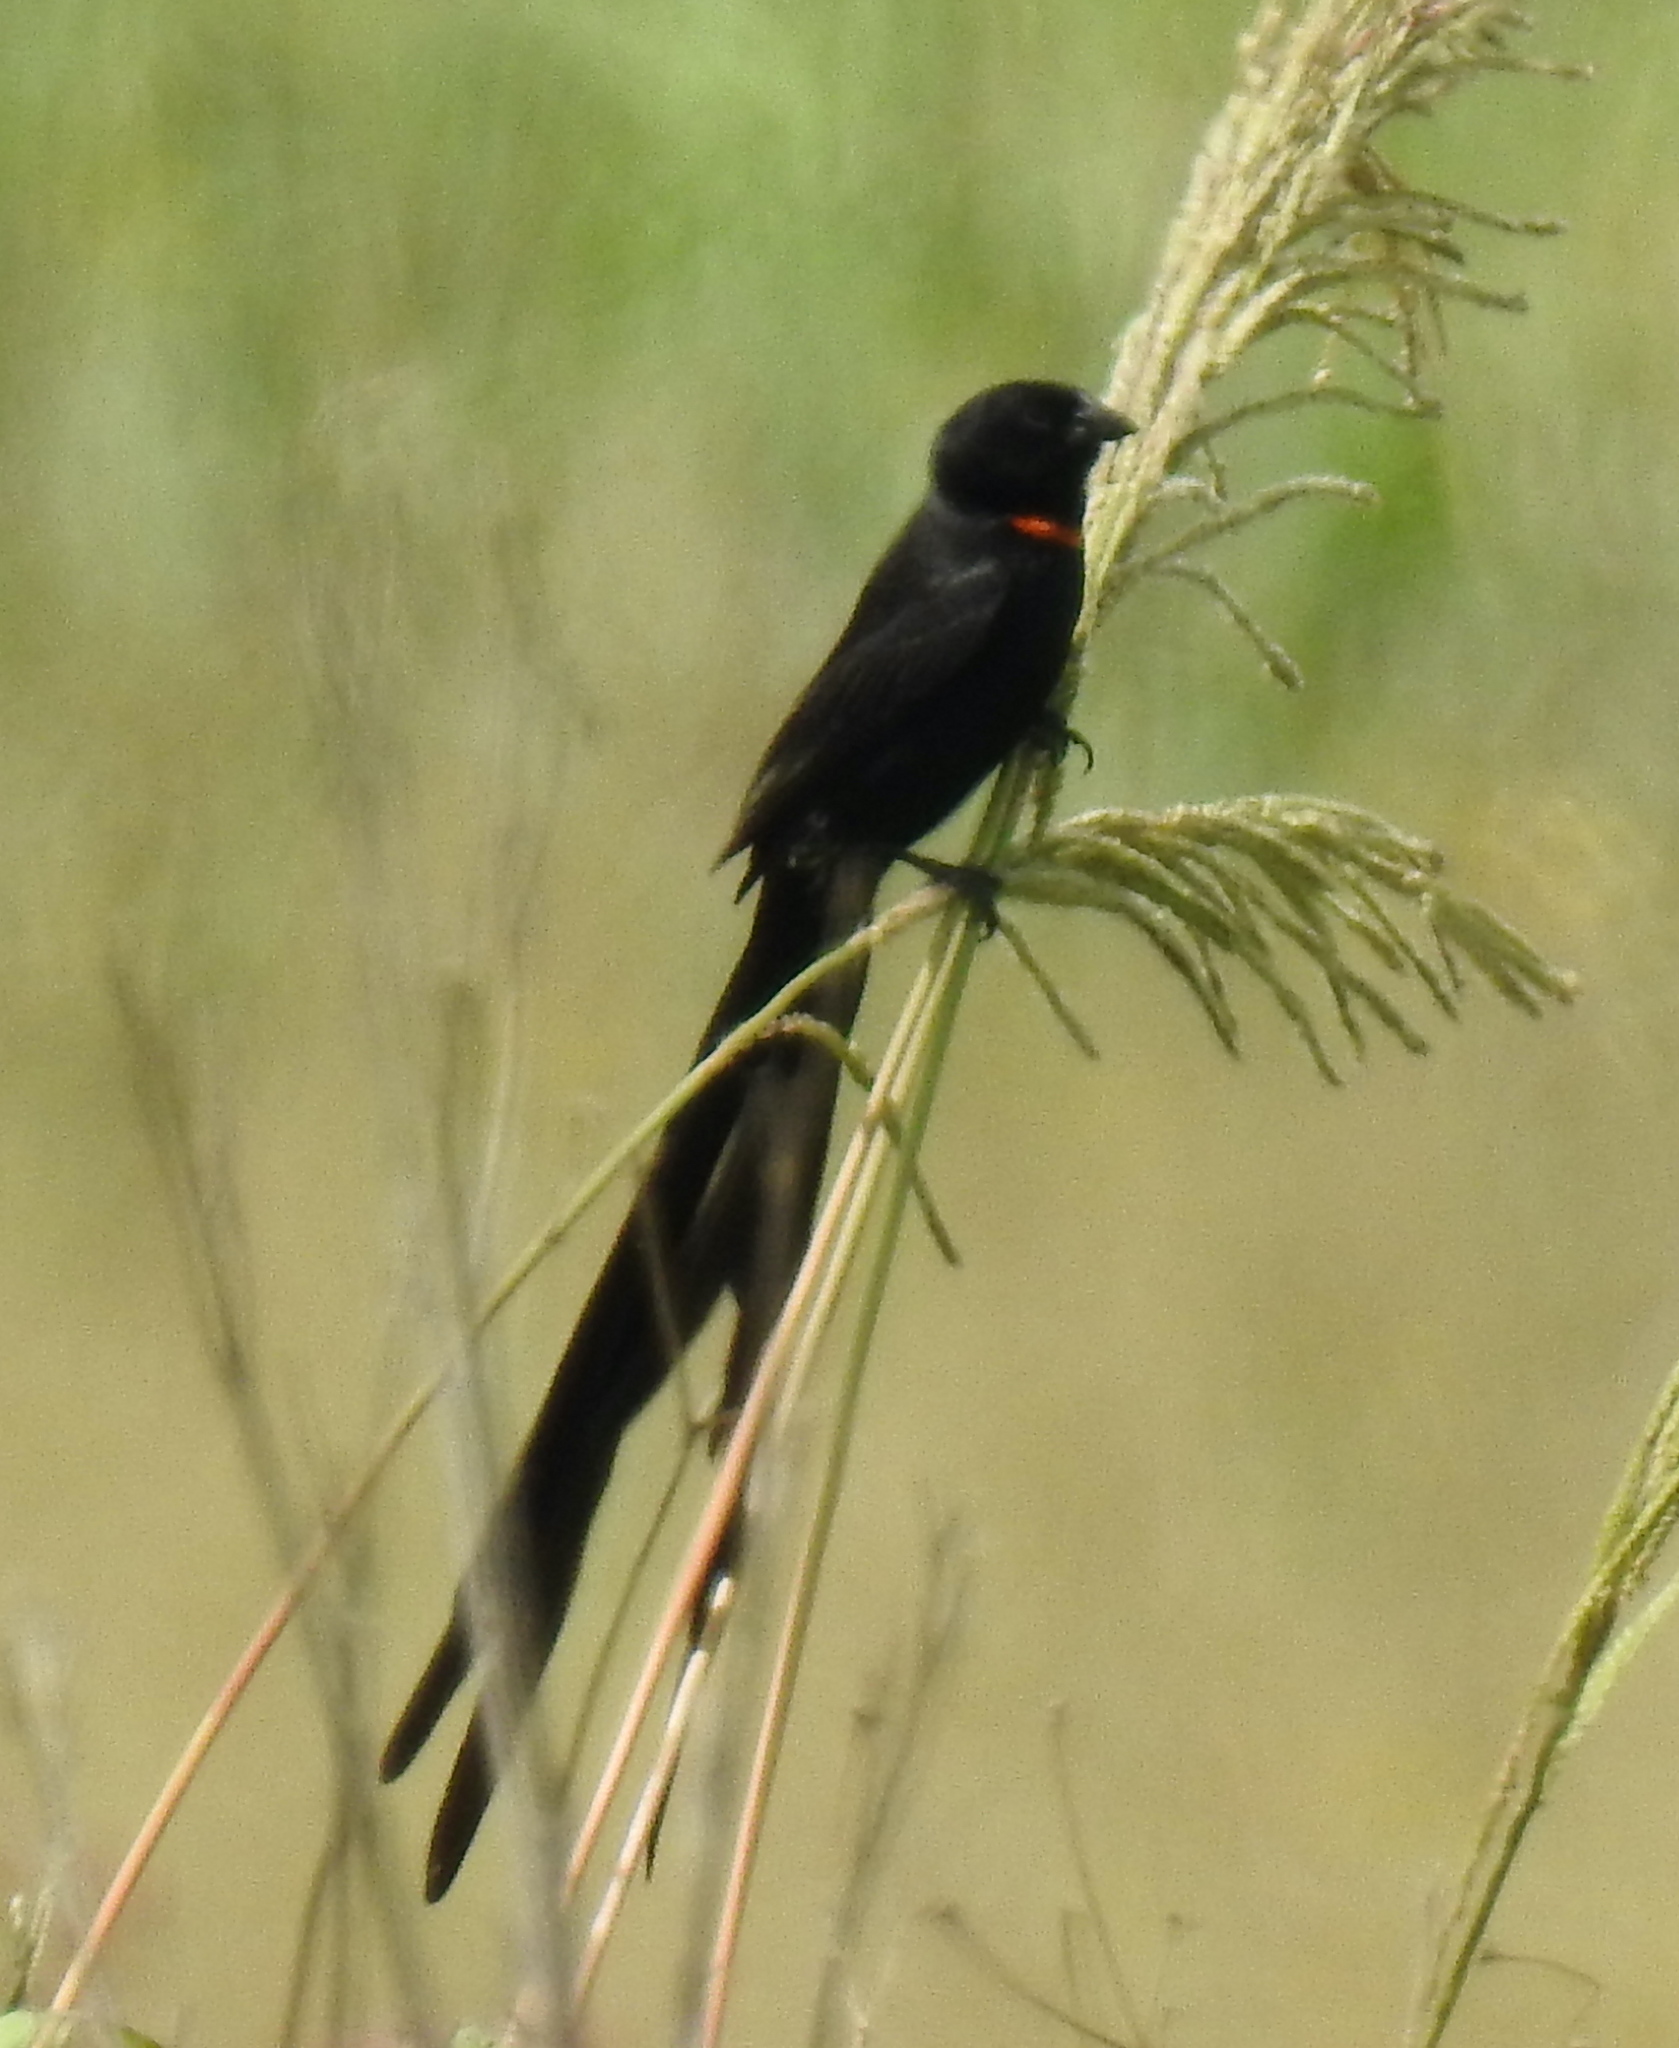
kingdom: Animalia
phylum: Chordata
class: Aves
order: Passeriformes
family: Ploceidae
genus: Euplectes
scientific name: Euplectes ardens
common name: Red-collared widowbird
